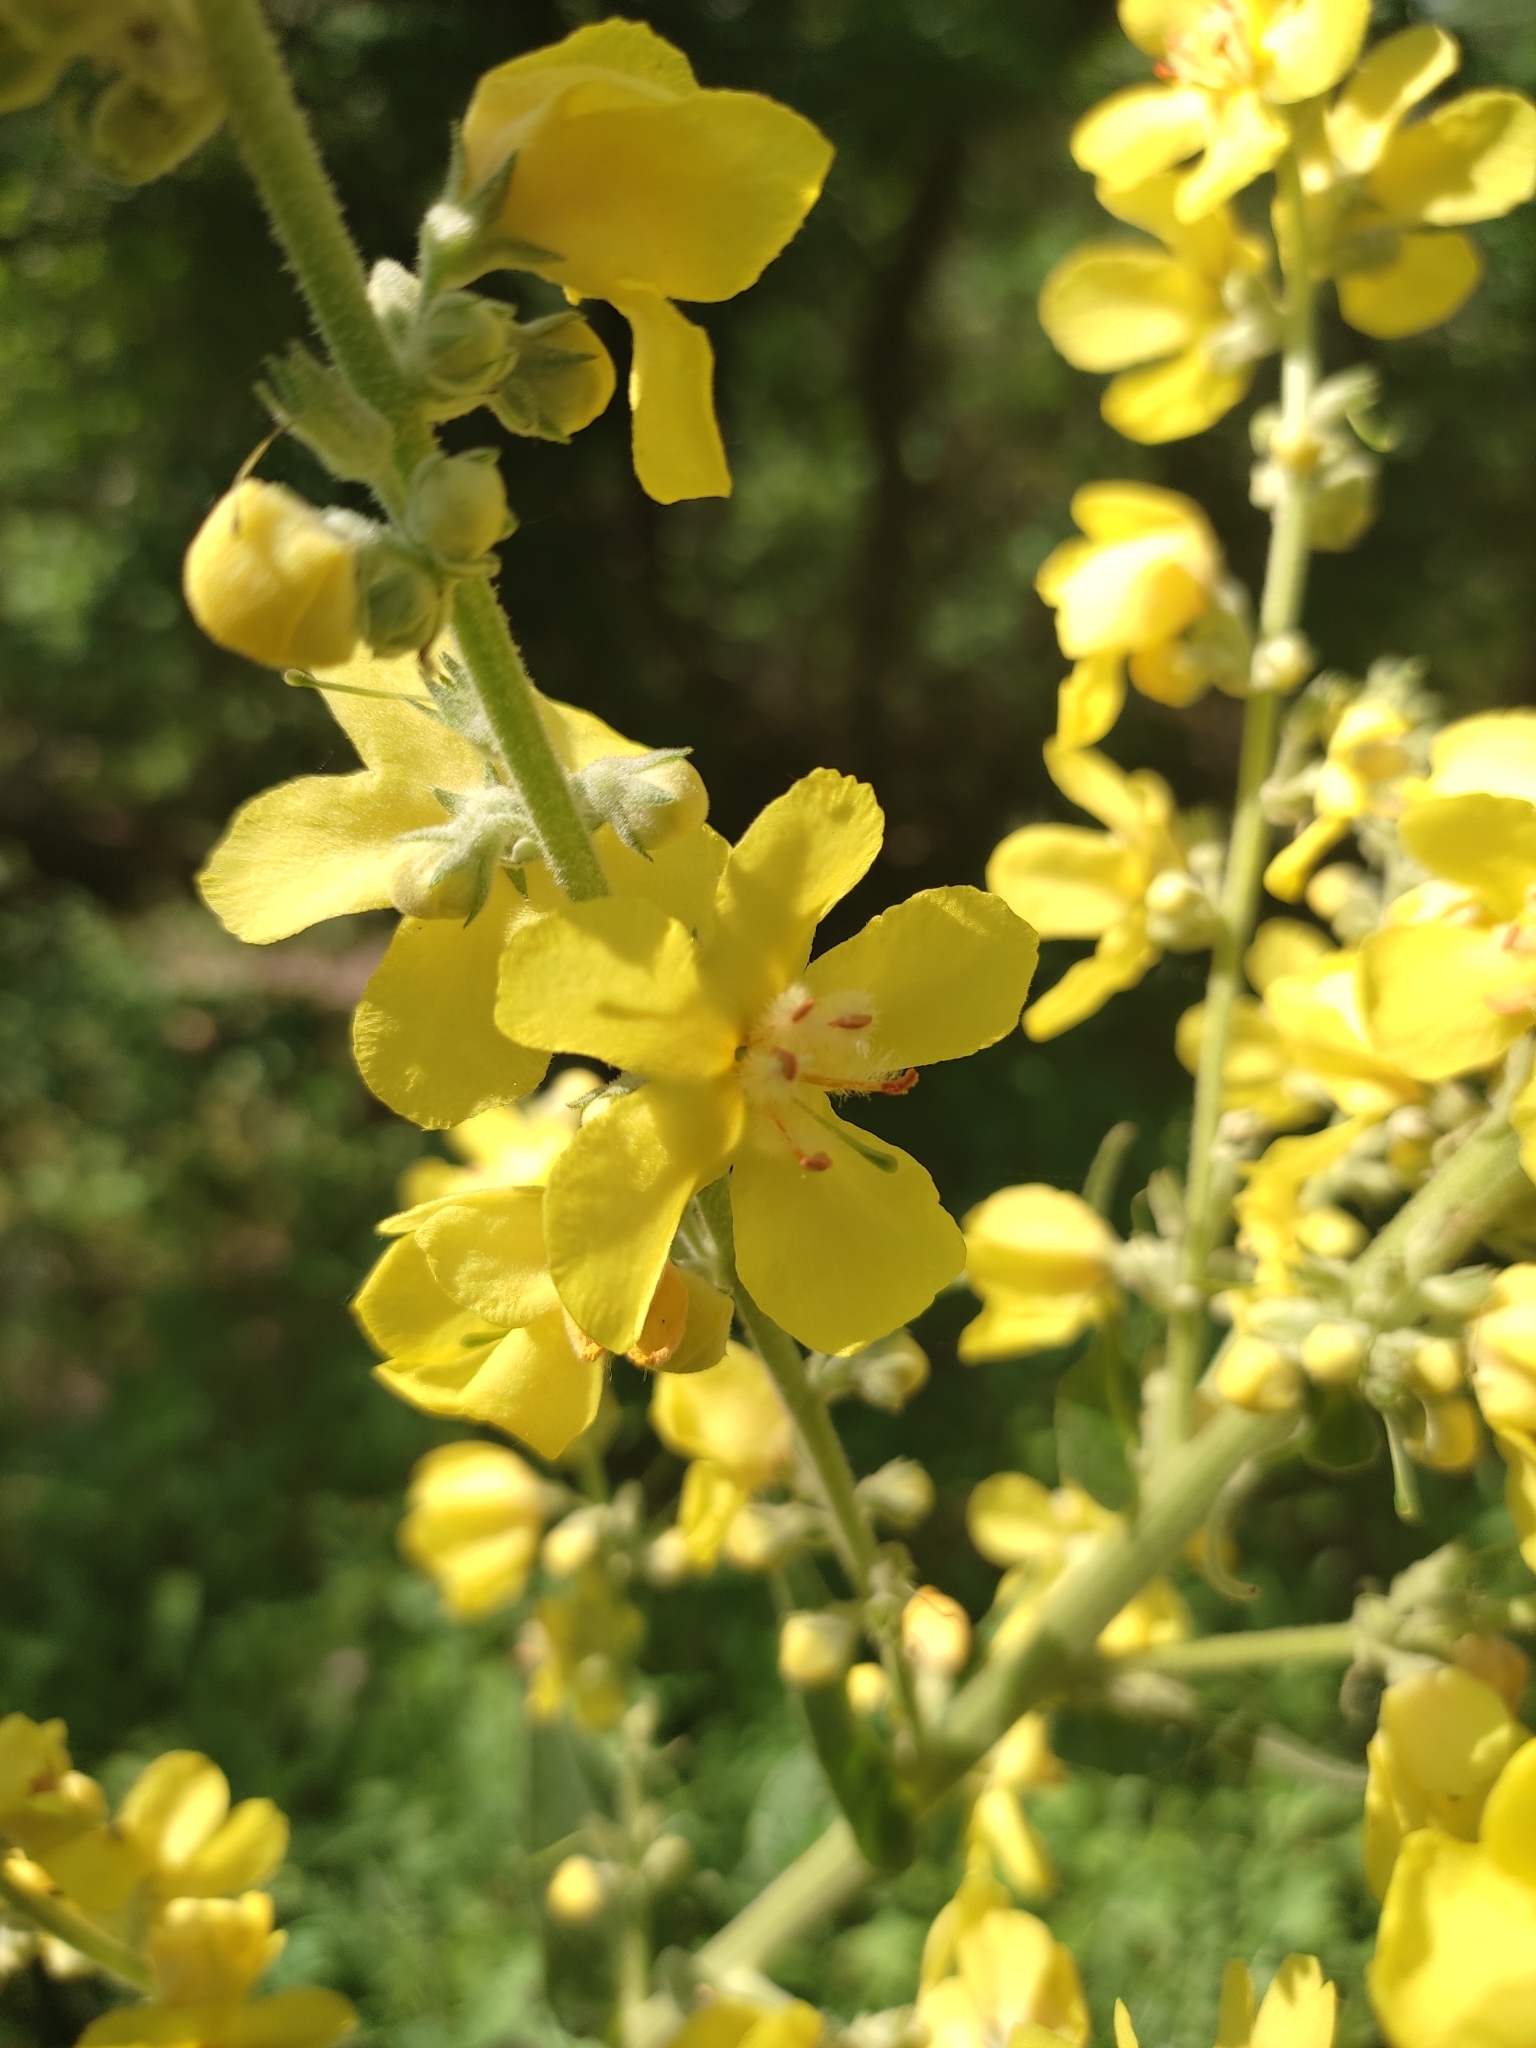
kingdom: Plantae
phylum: Tracheophyta
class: Magnoliopsida
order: Lamiales
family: Scrophulariaceae
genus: Verbascum
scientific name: Verbascum lychnitis
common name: White mullein
